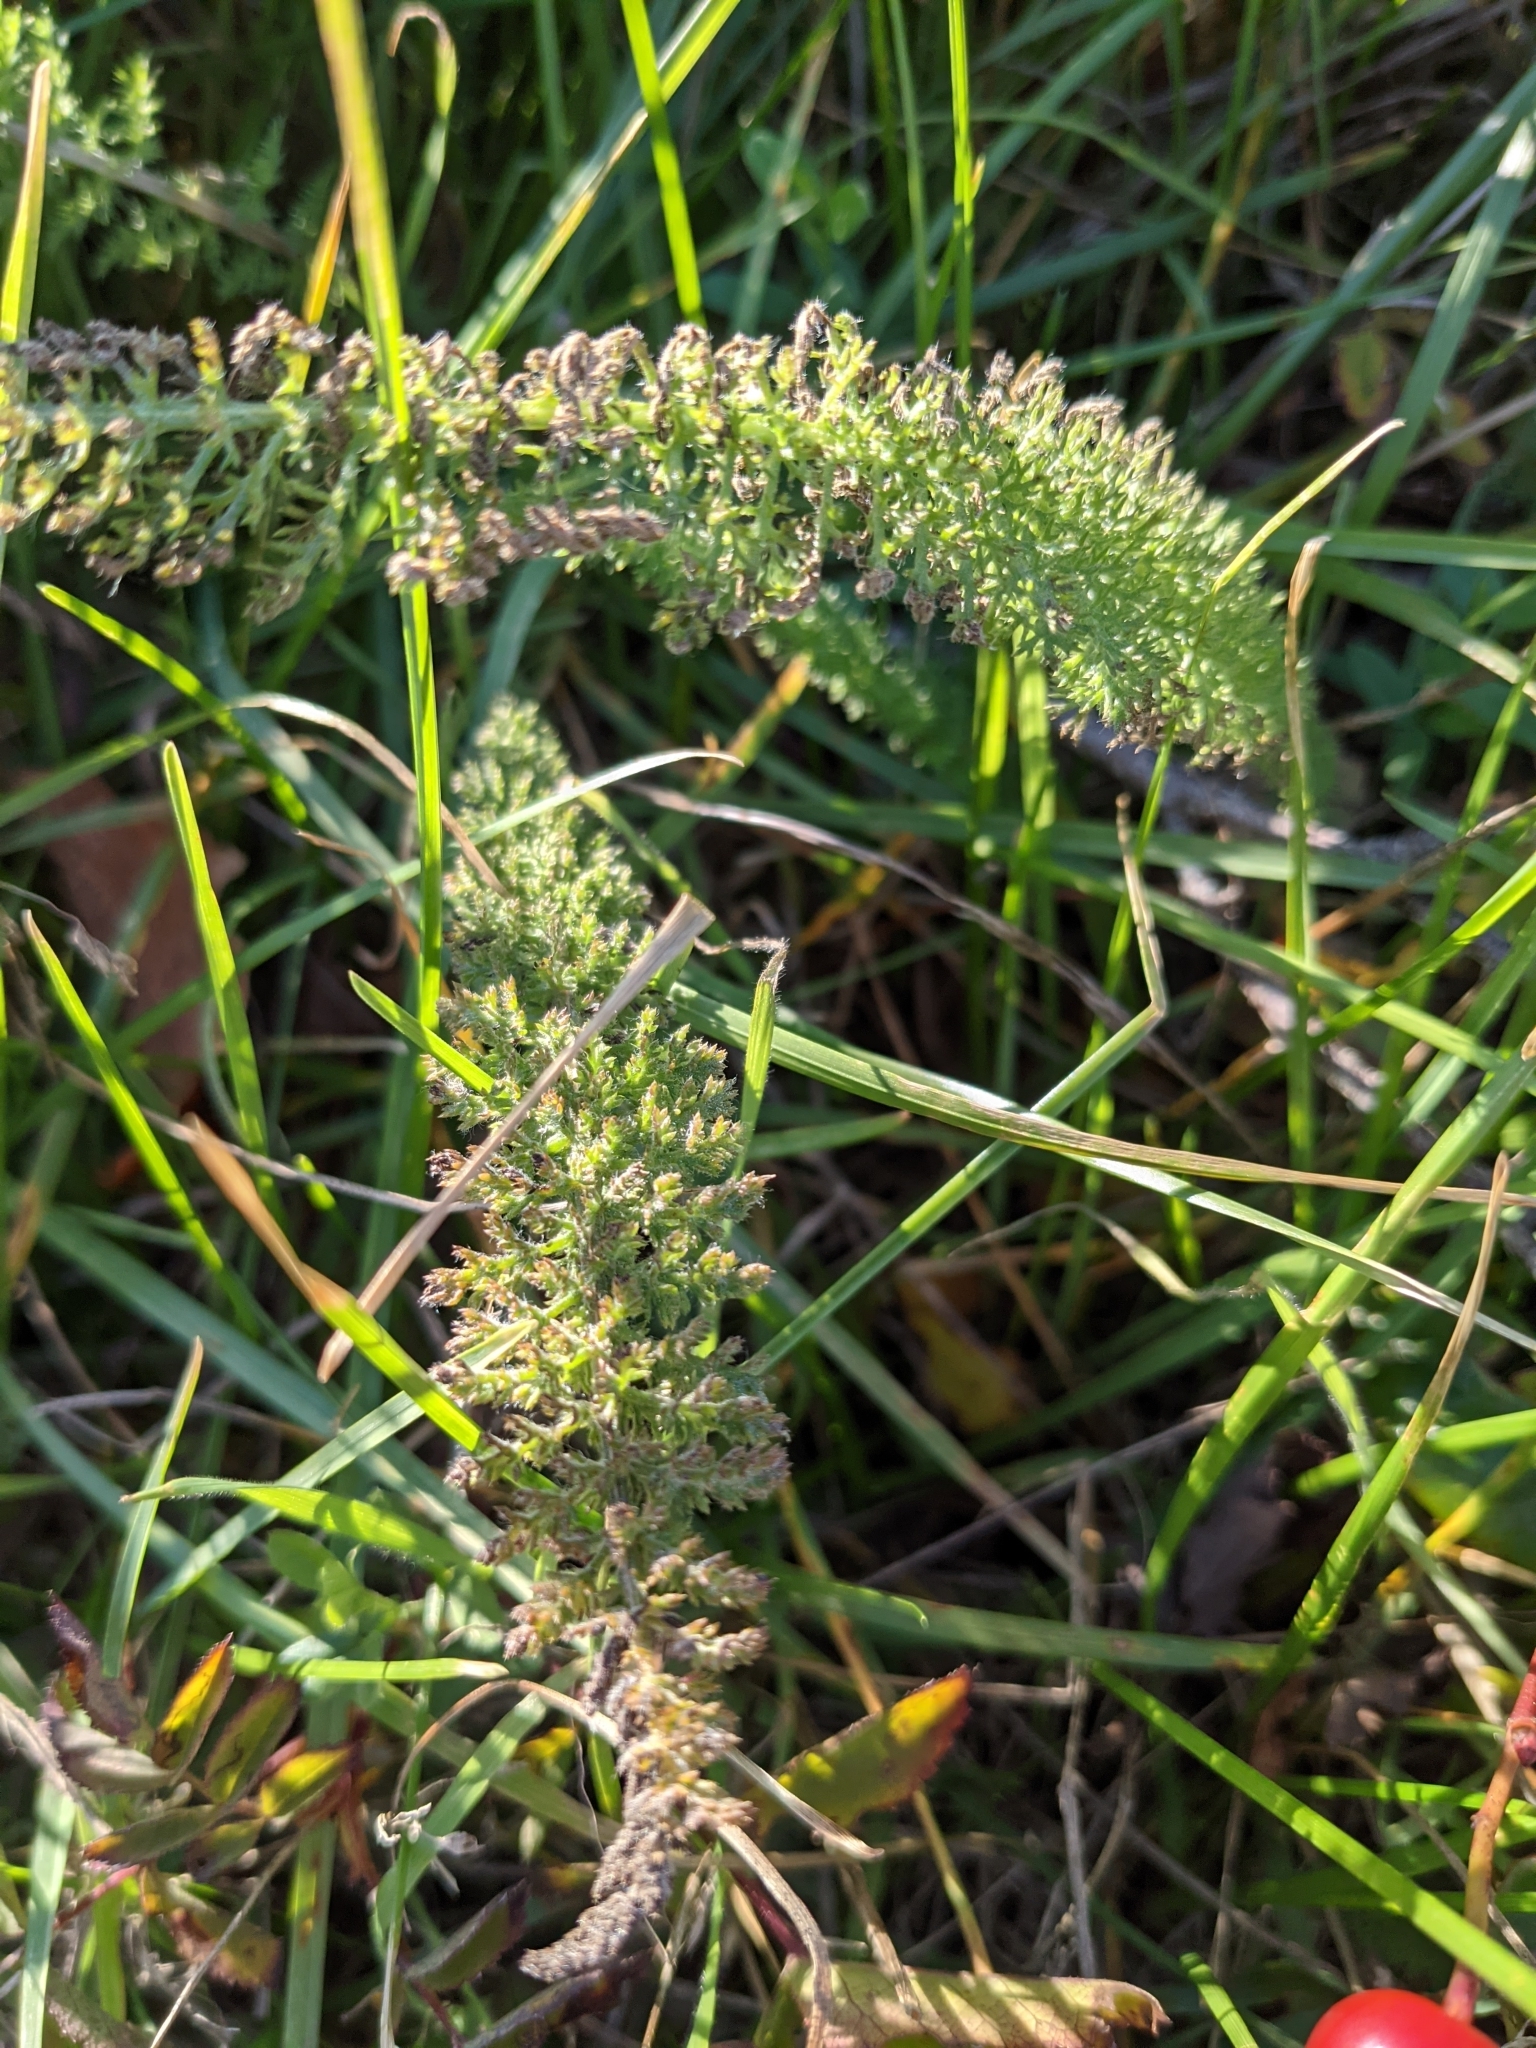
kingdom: Plantae
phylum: Tracheophyta
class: Magnoliopsida
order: Asterales
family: Asteraceae
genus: Achillea
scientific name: Achillea millefolium
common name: Yarrow
